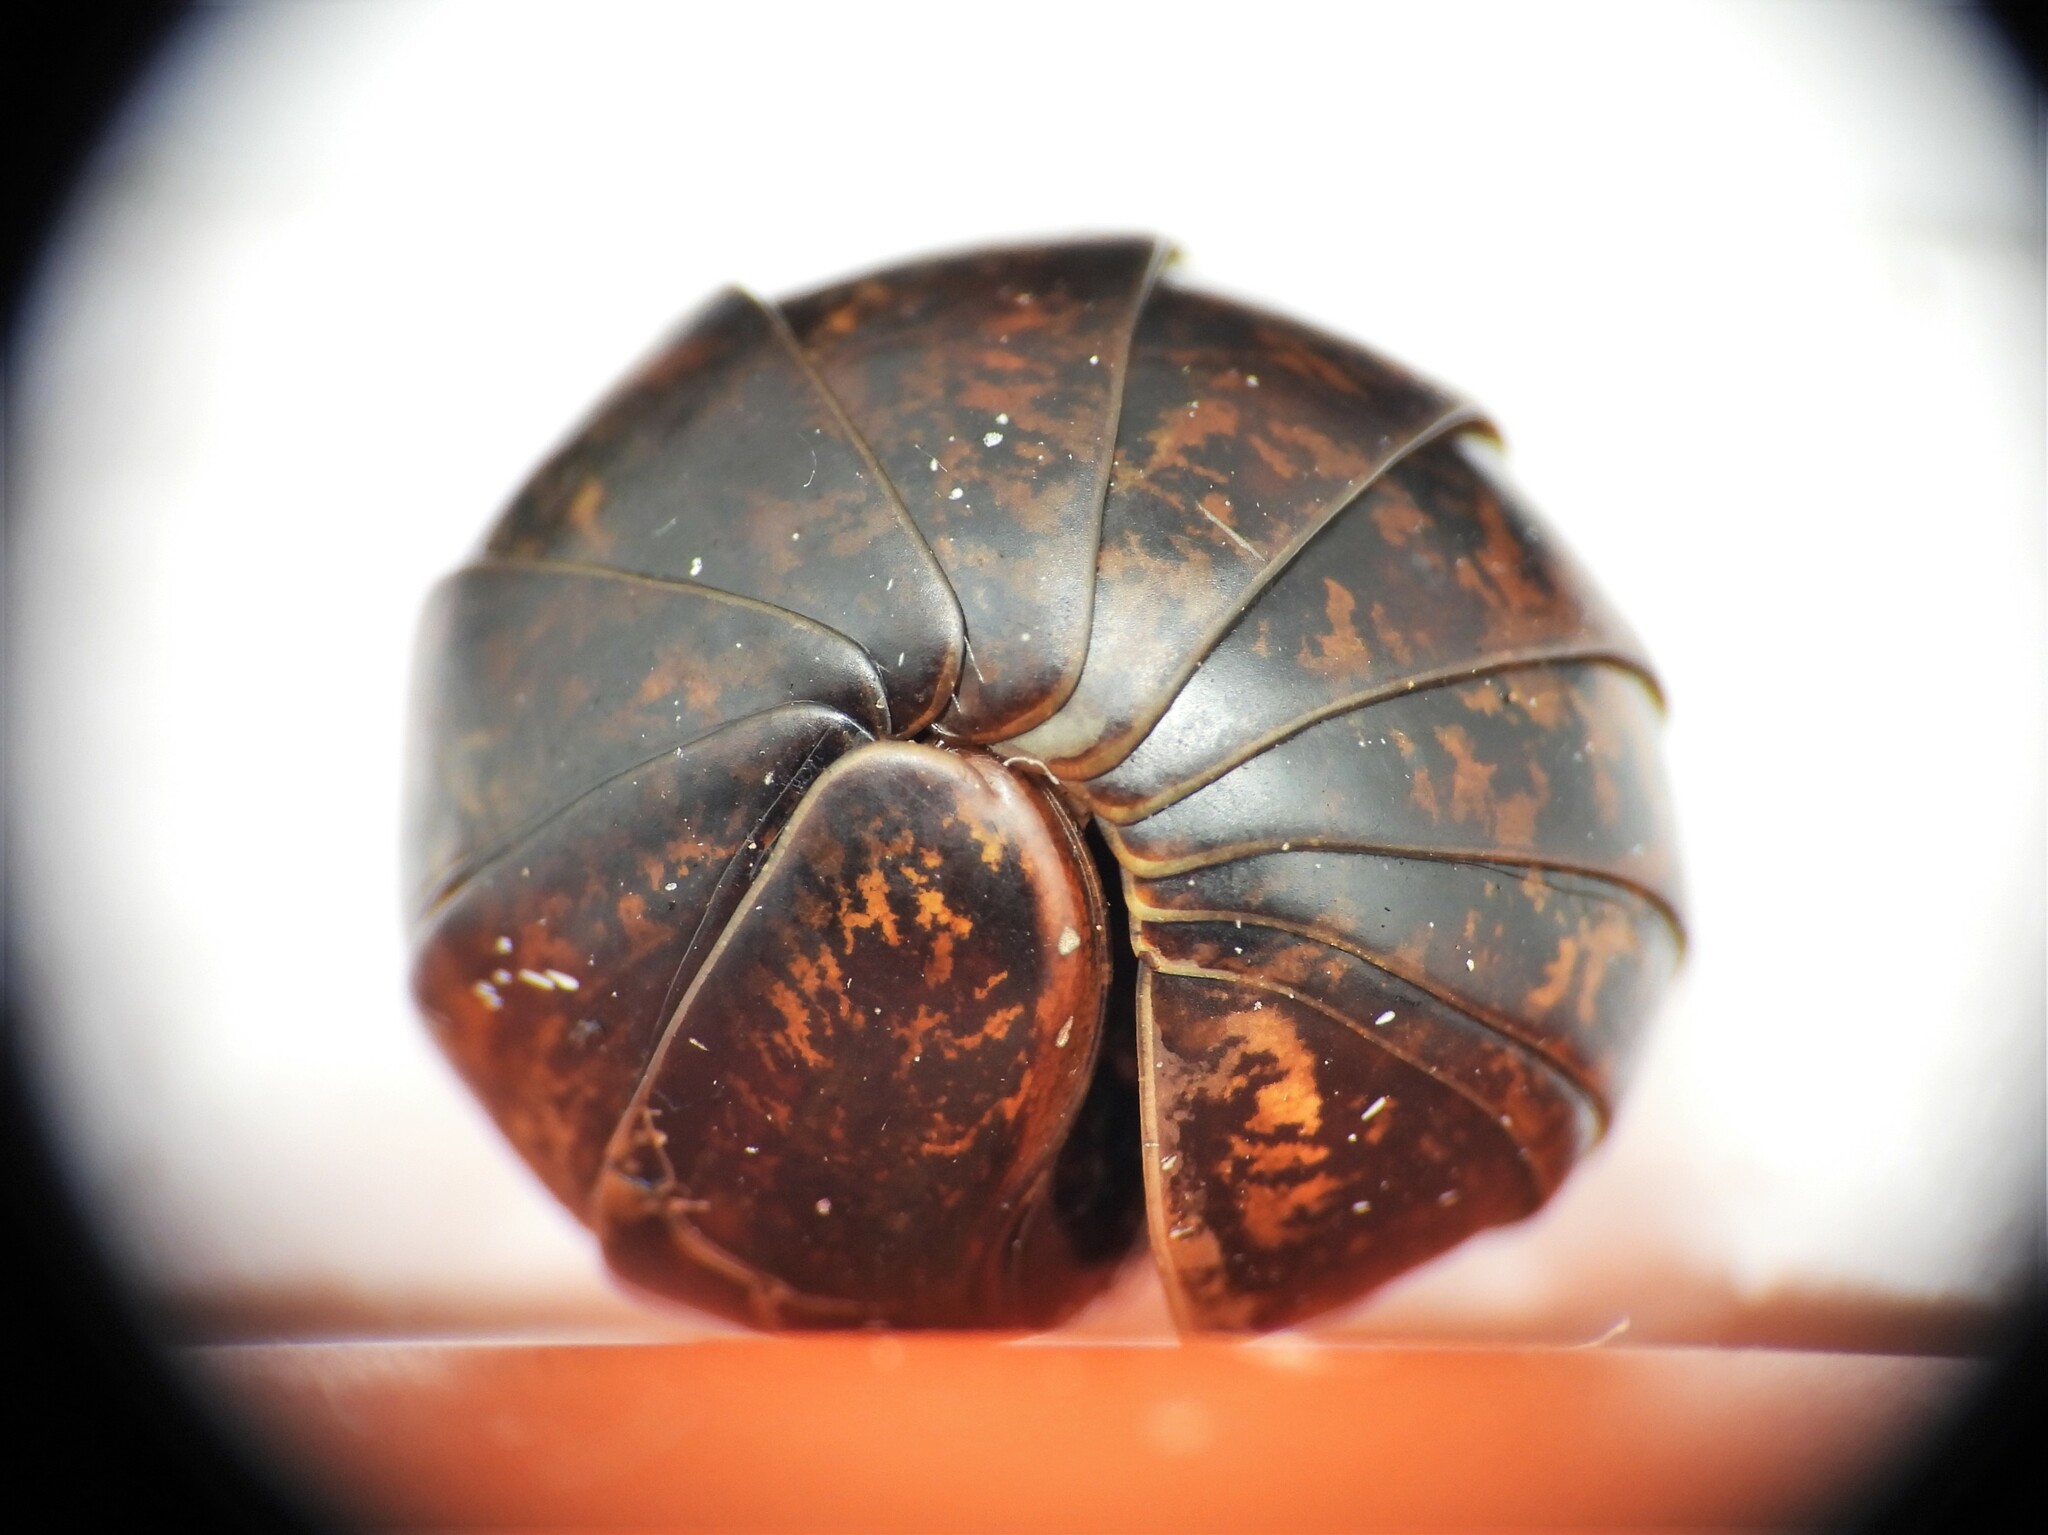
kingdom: Animalia
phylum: Arthropoda
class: Diplopoda
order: Glomerida
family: Glomeridae
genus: Glomeris
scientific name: Glomeris klugii
